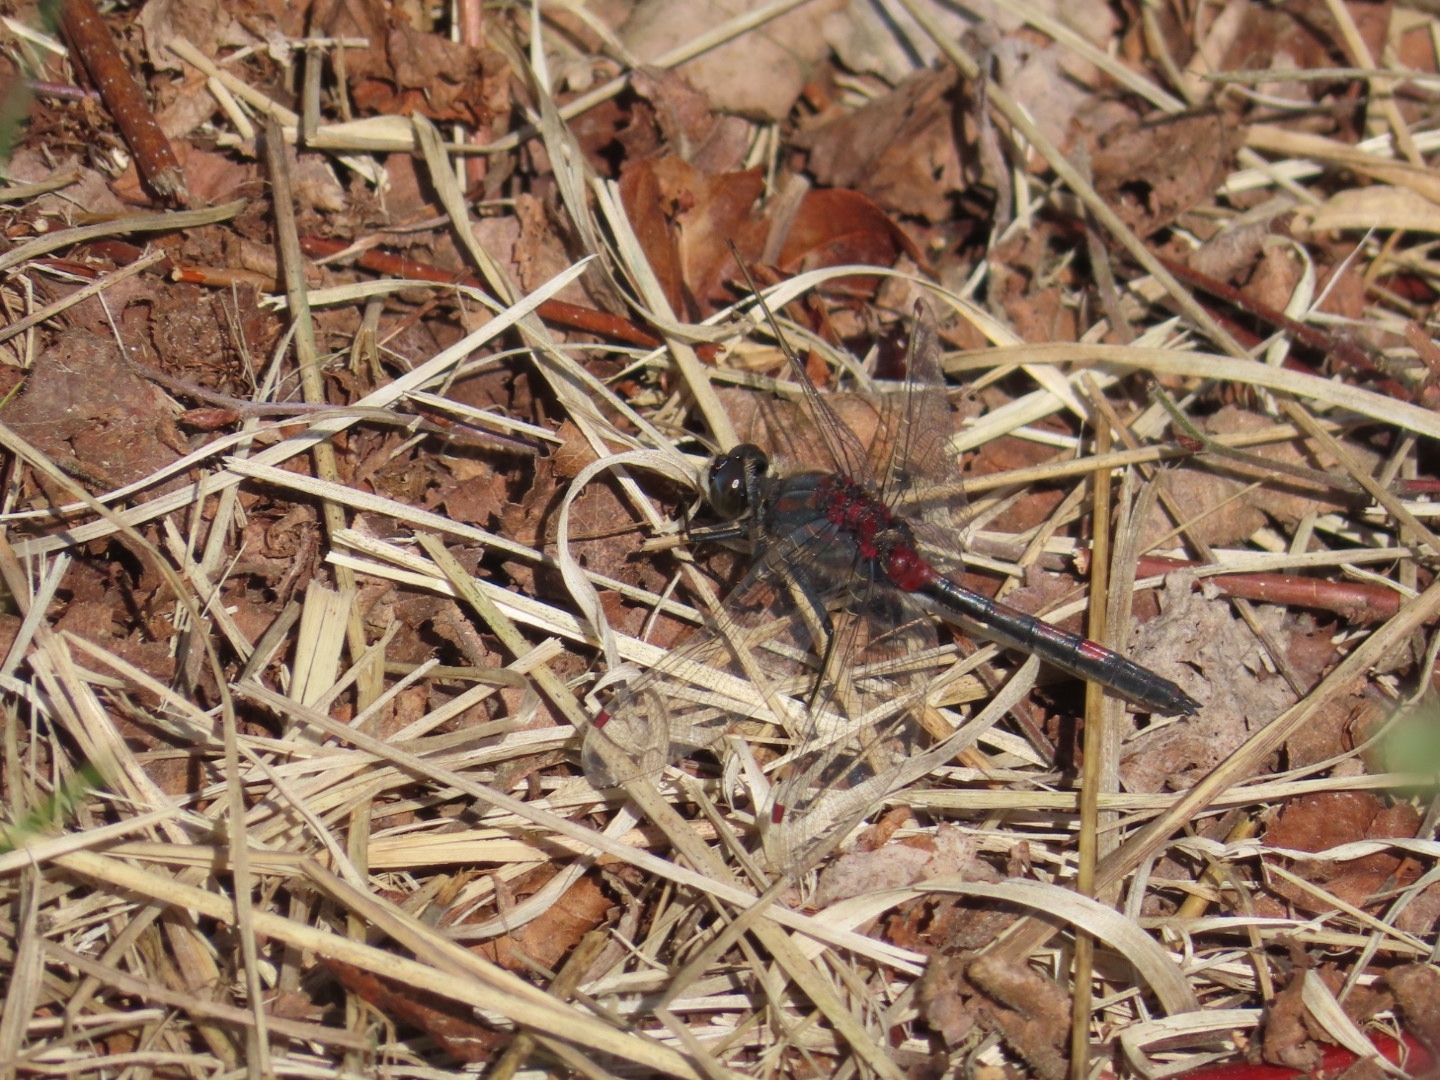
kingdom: Animalia
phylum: Arthropoda
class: Insecta
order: Odonata
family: Libellulidae
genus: Leucorrhinia
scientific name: Leucorrhinia rubicunda
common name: Ruby whiteface
